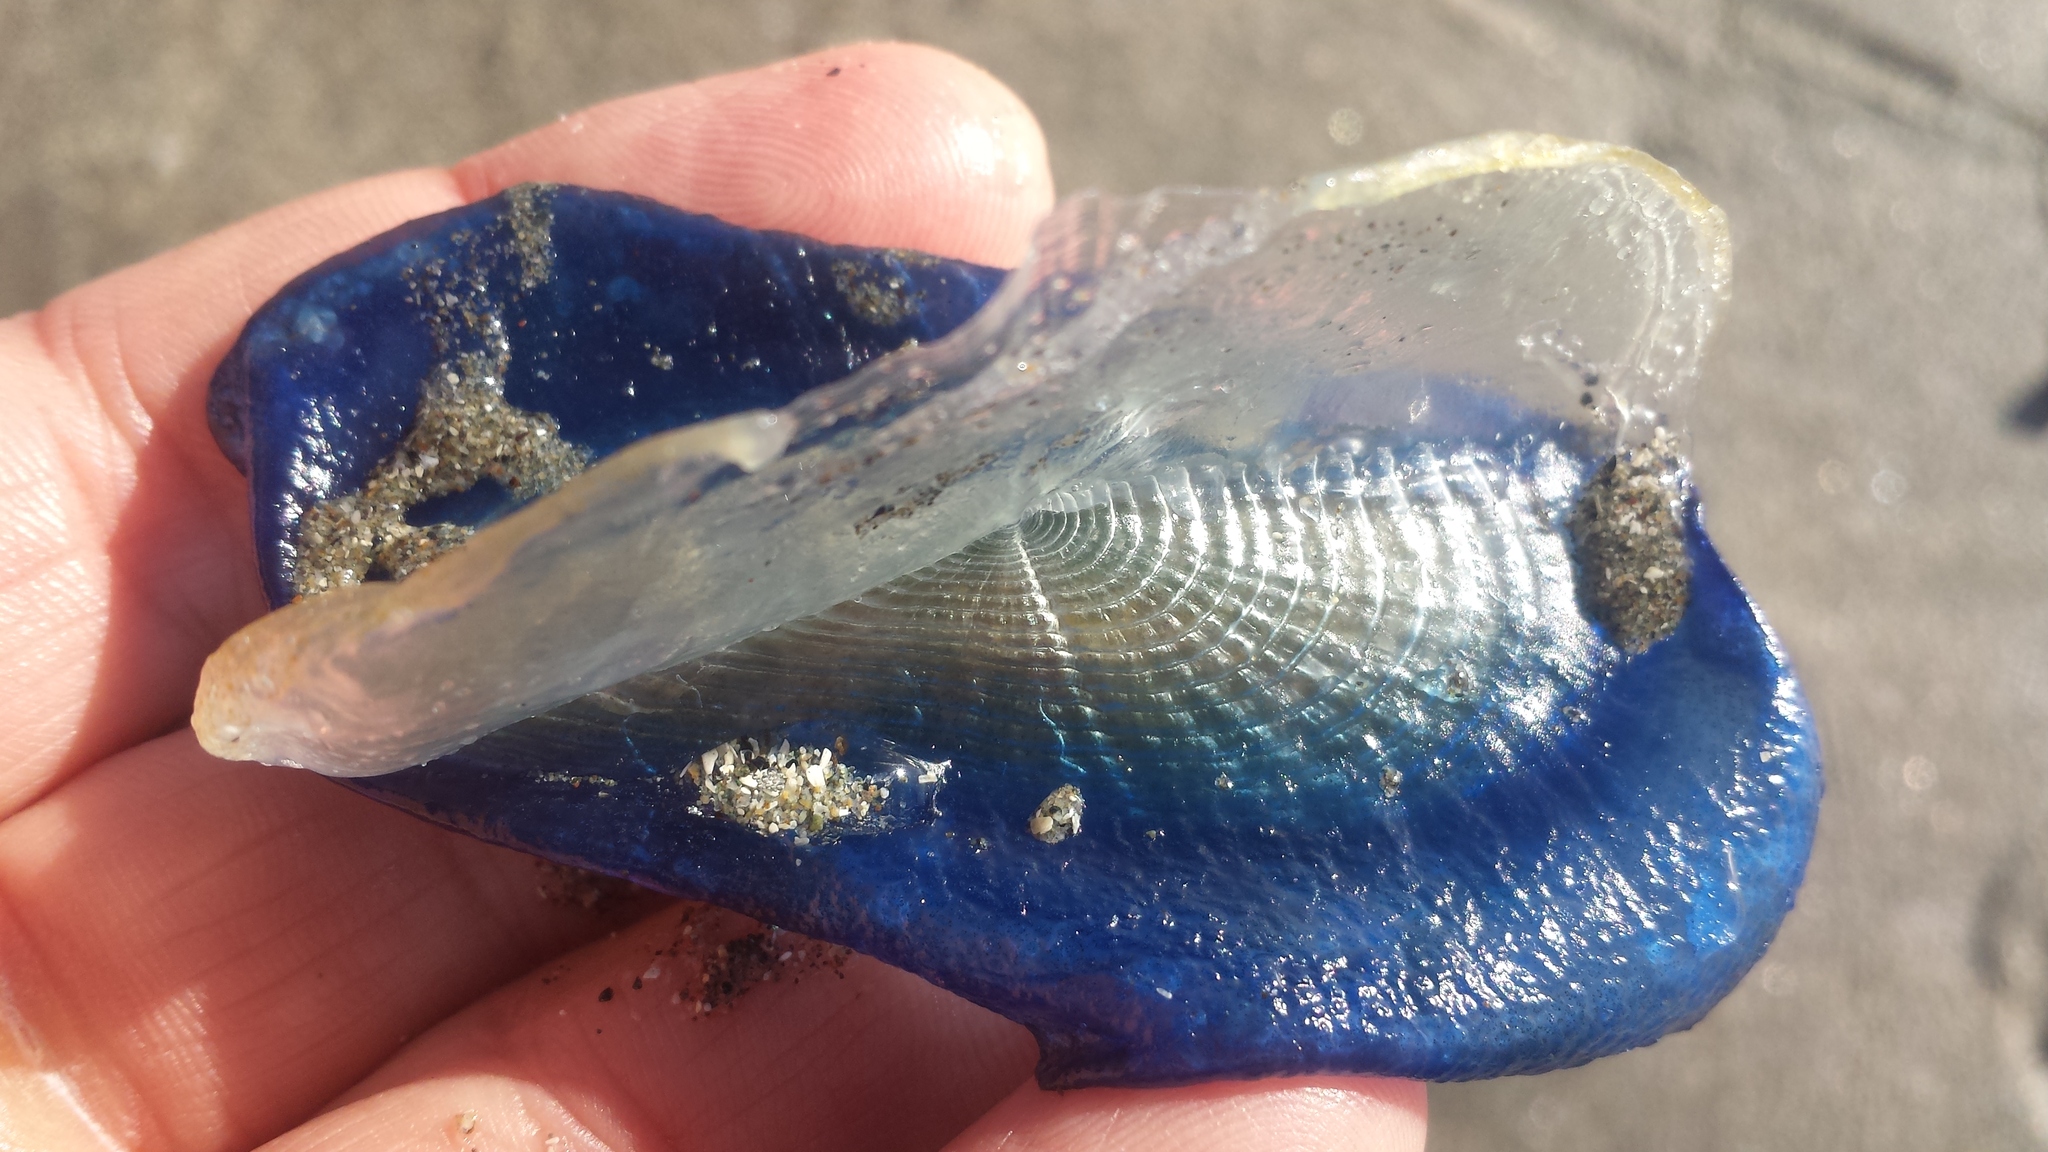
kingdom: Animalia
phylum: Cnidaria
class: Hydrozoa
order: Anthoathecata
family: Porpitidae
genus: Velella
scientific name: Velella velella
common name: By-the-wind-sailor
